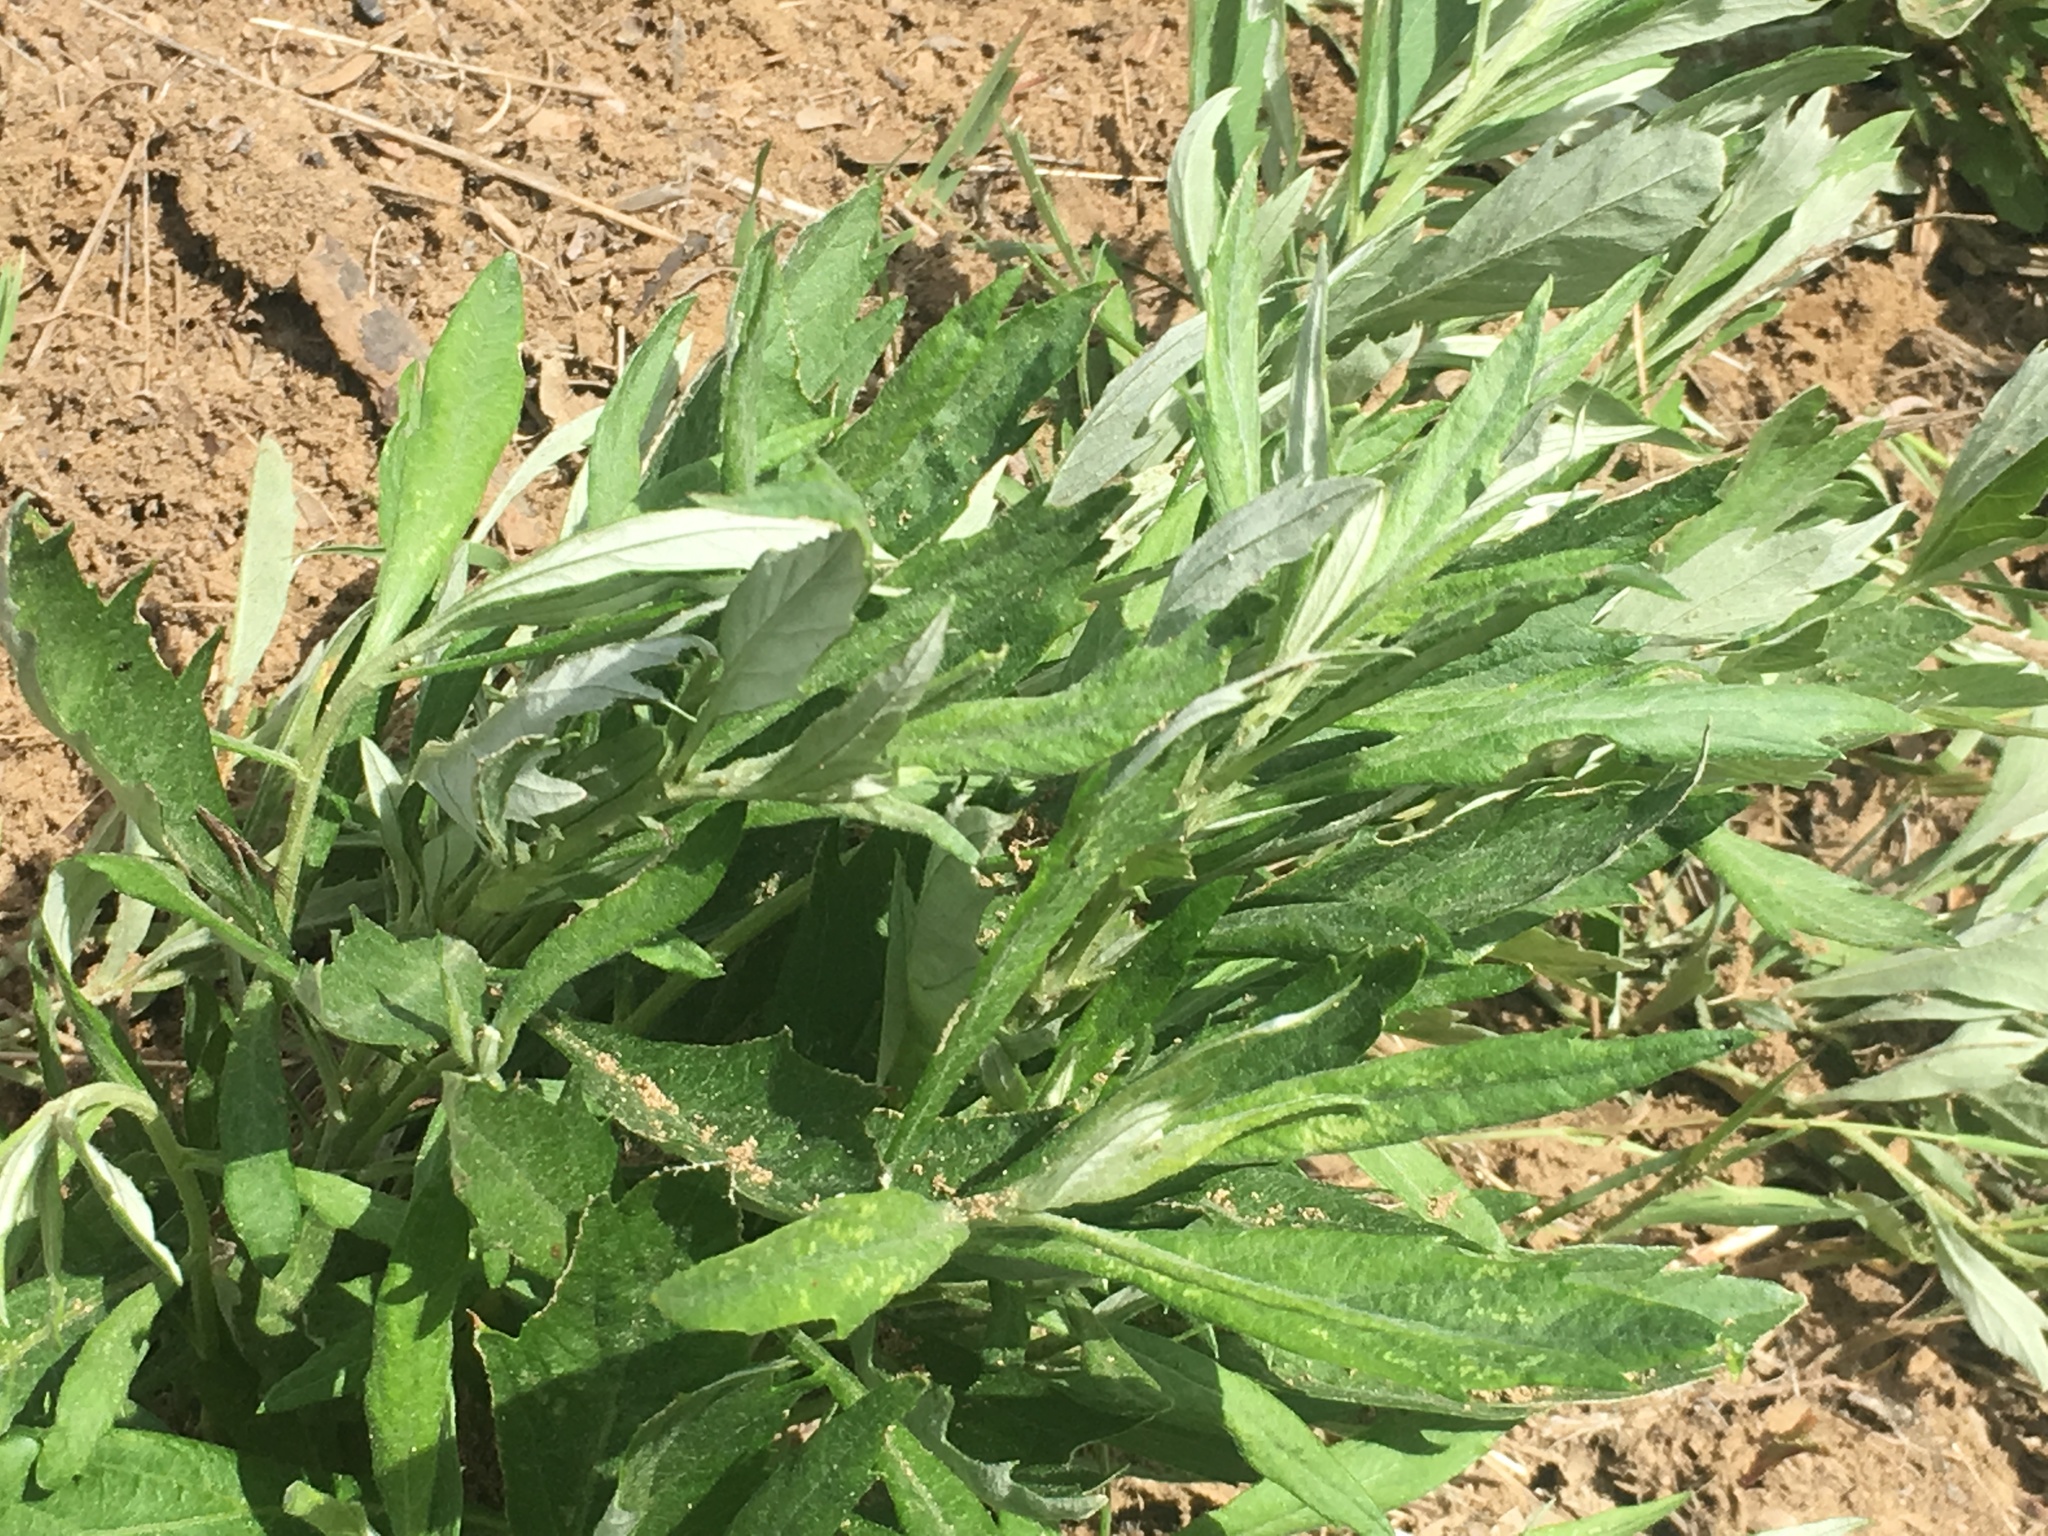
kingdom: Plantae
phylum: Tracheophyta
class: Magnoliopsida
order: Asterales
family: Asteraceae
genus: Artemisia
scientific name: Artemisia douglasiana
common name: Northwest mugwort
